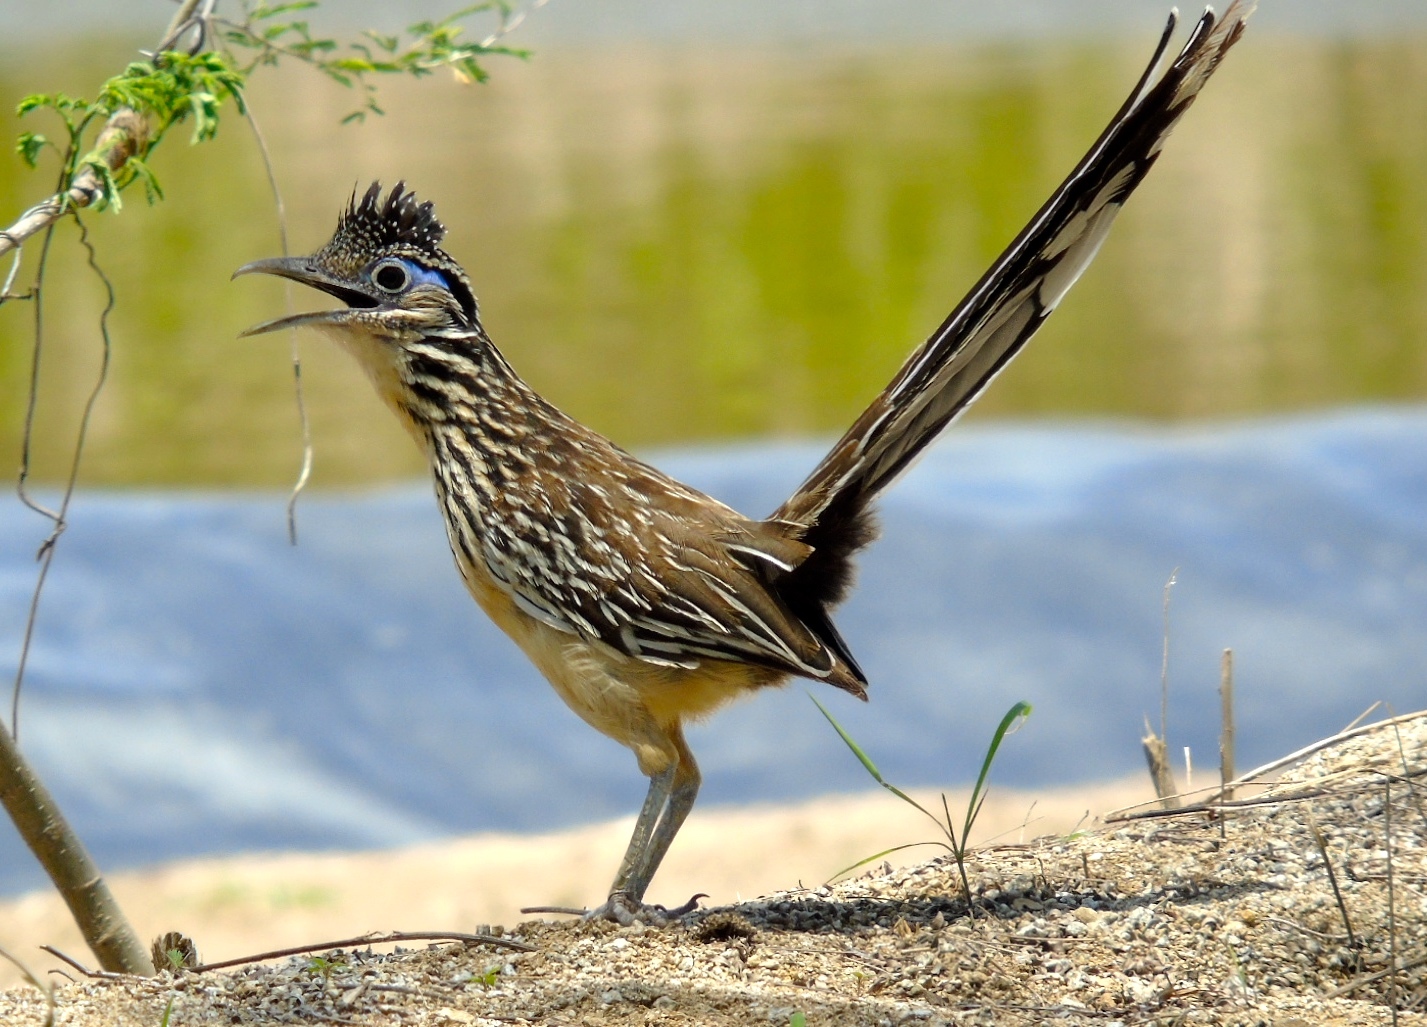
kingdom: Animalia
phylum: Chordata
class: Aves
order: Cuculiformes
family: Cuculidae
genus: Geococcyx
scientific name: Geococcyx velox
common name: Lesser roadrunner
